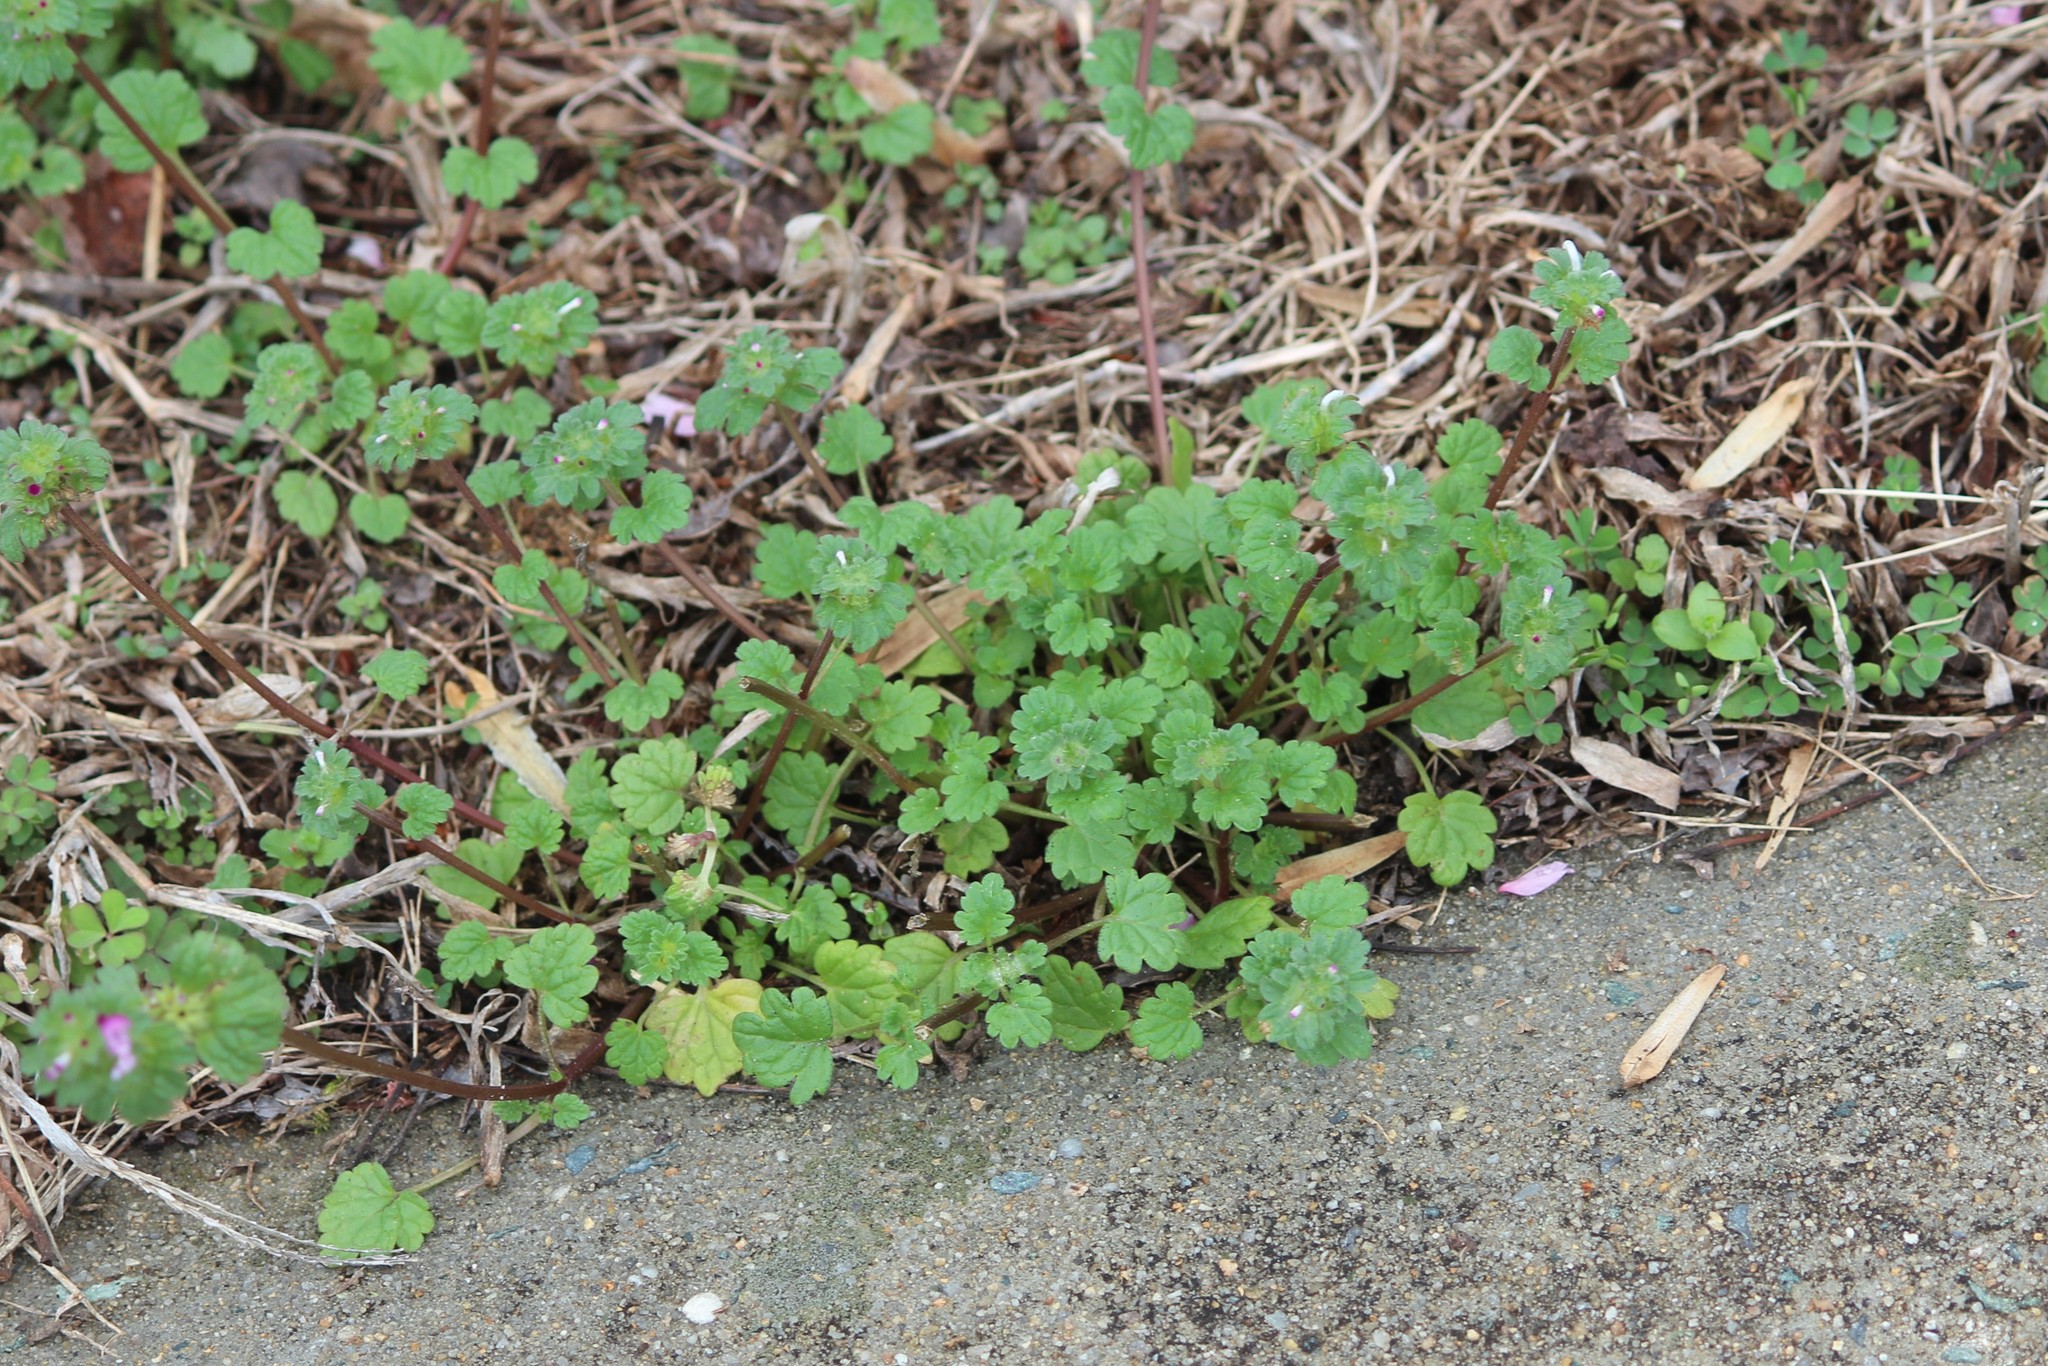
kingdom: Plantae
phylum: Tracheophyta
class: Magnoliopsida
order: Lamiales
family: Lamiaceae
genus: Lamium
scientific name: Lamium amplexicaule
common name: Henbit dead-nettle
